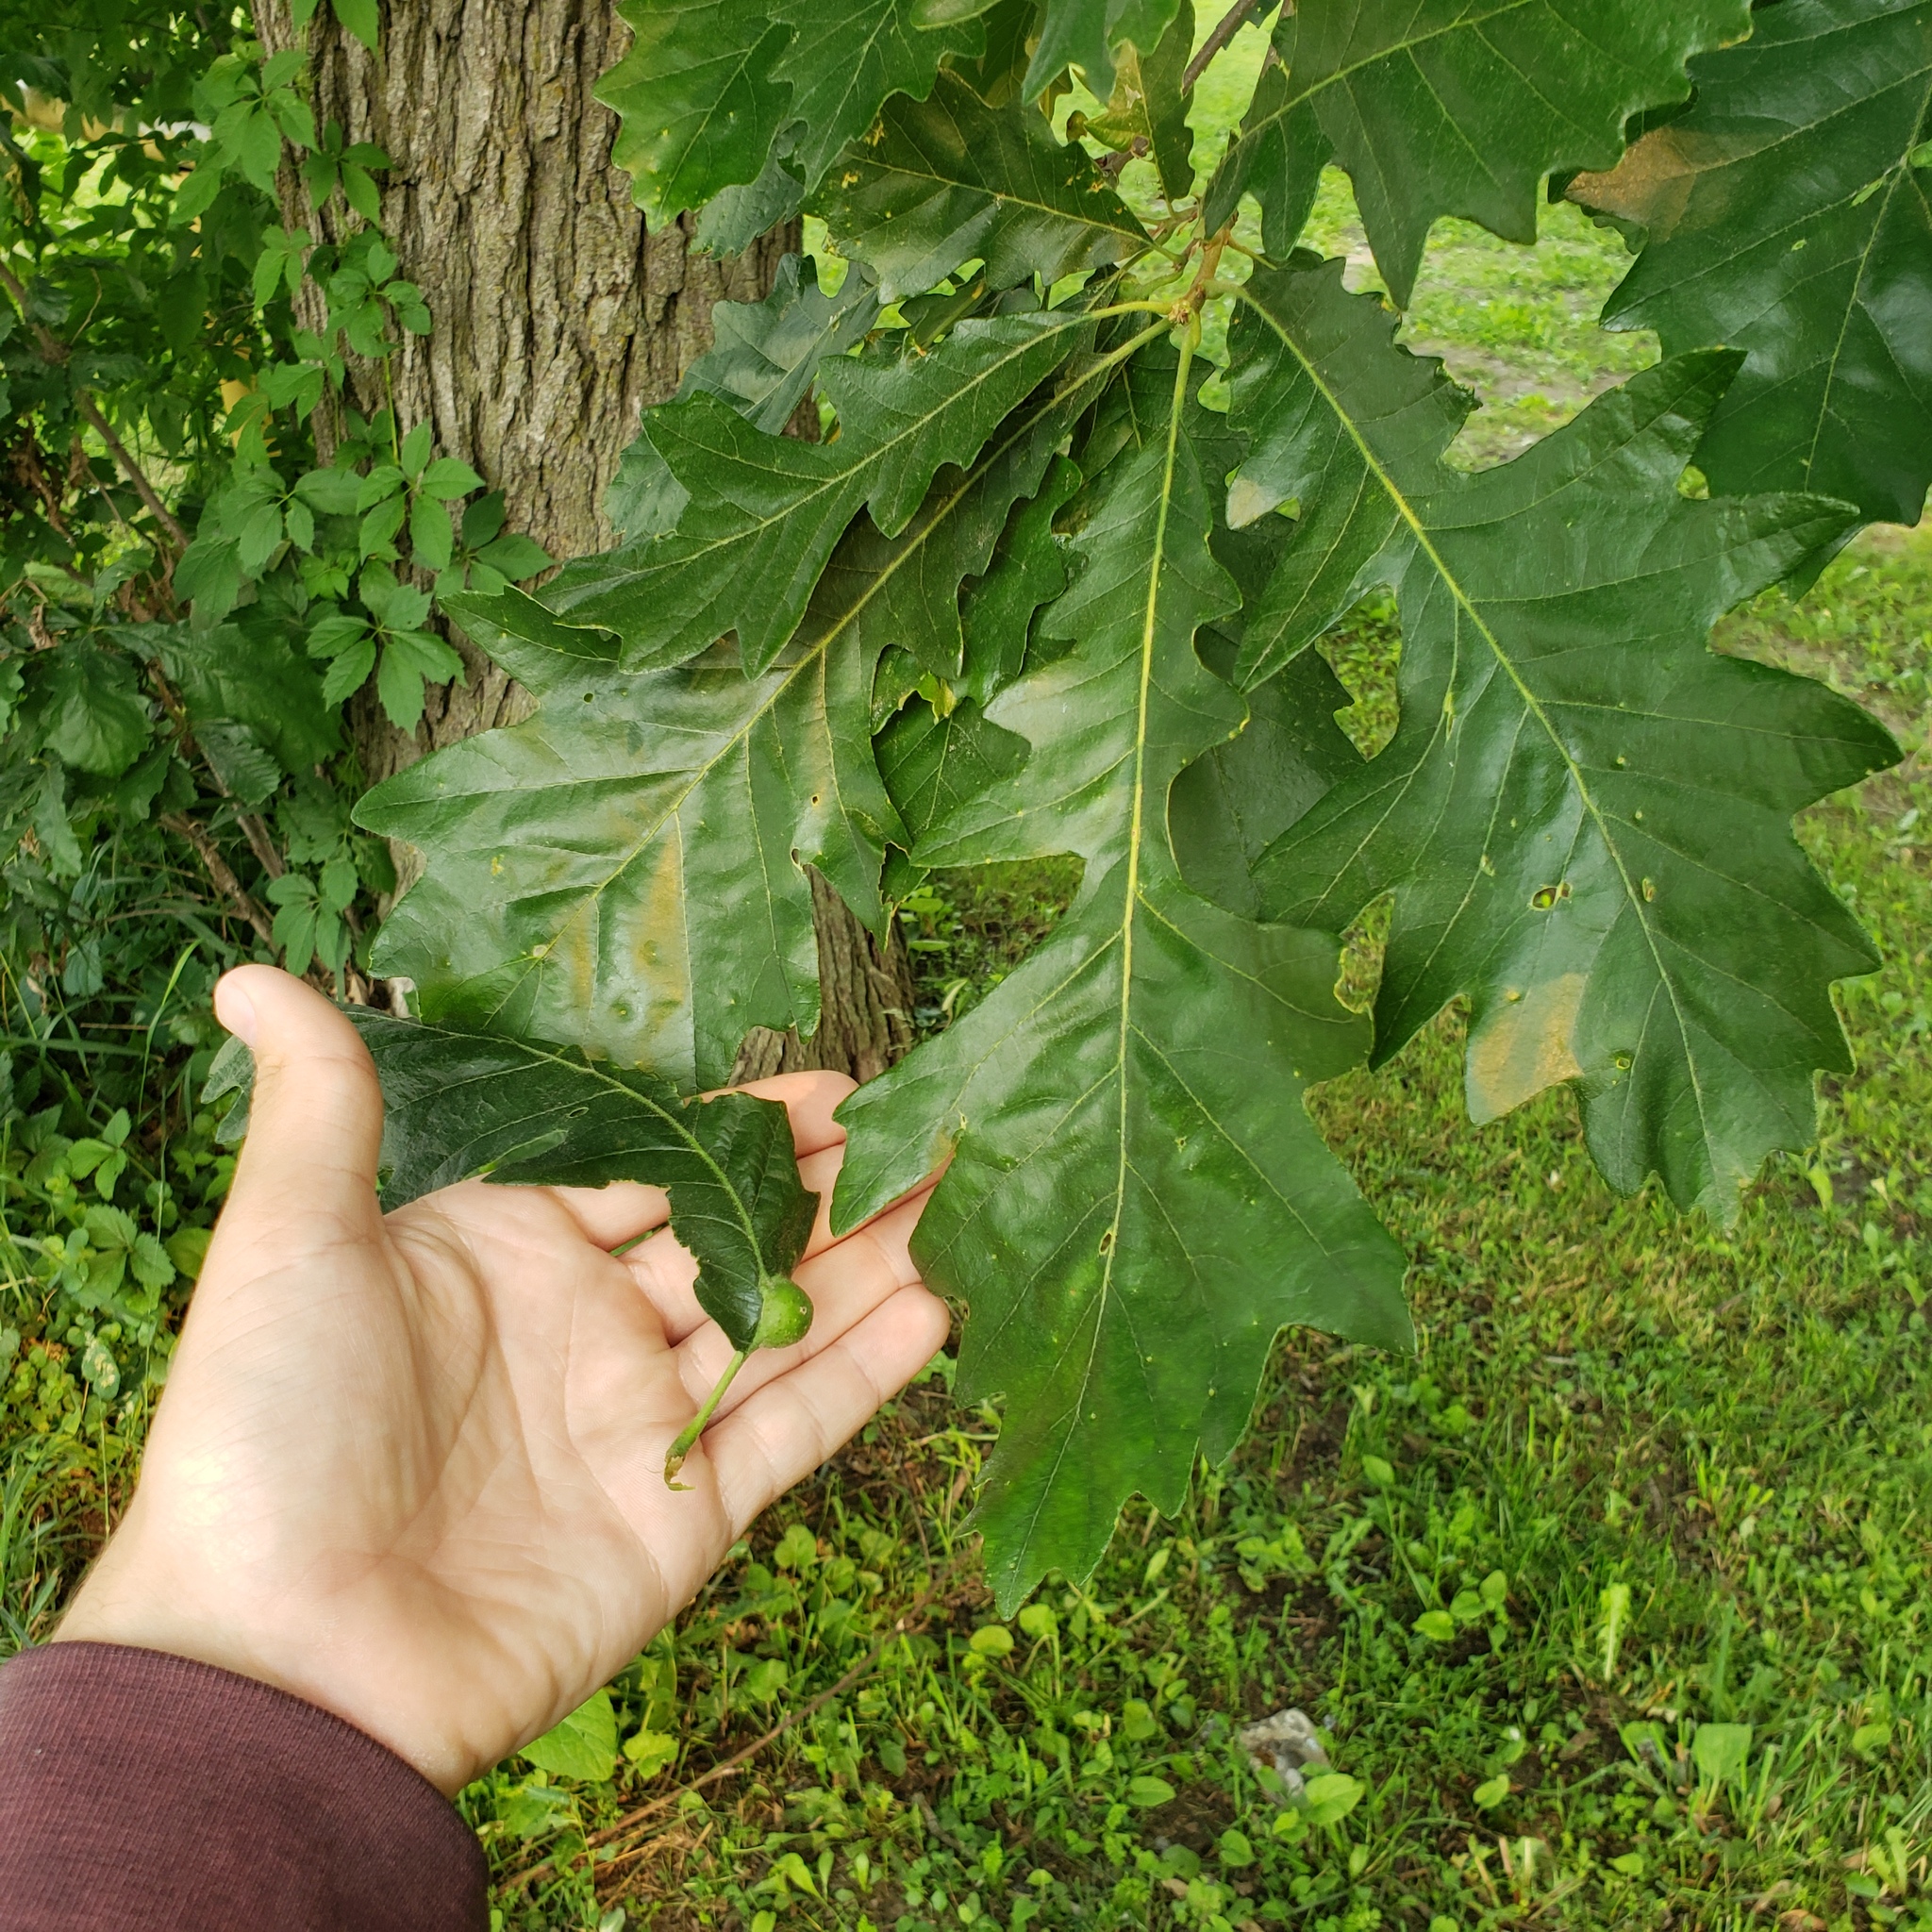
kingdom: Animalia
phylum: Arthropoda
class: Insecta
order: Hymenoptera
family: Cynipidae
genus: Andricus
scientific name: Andricus
